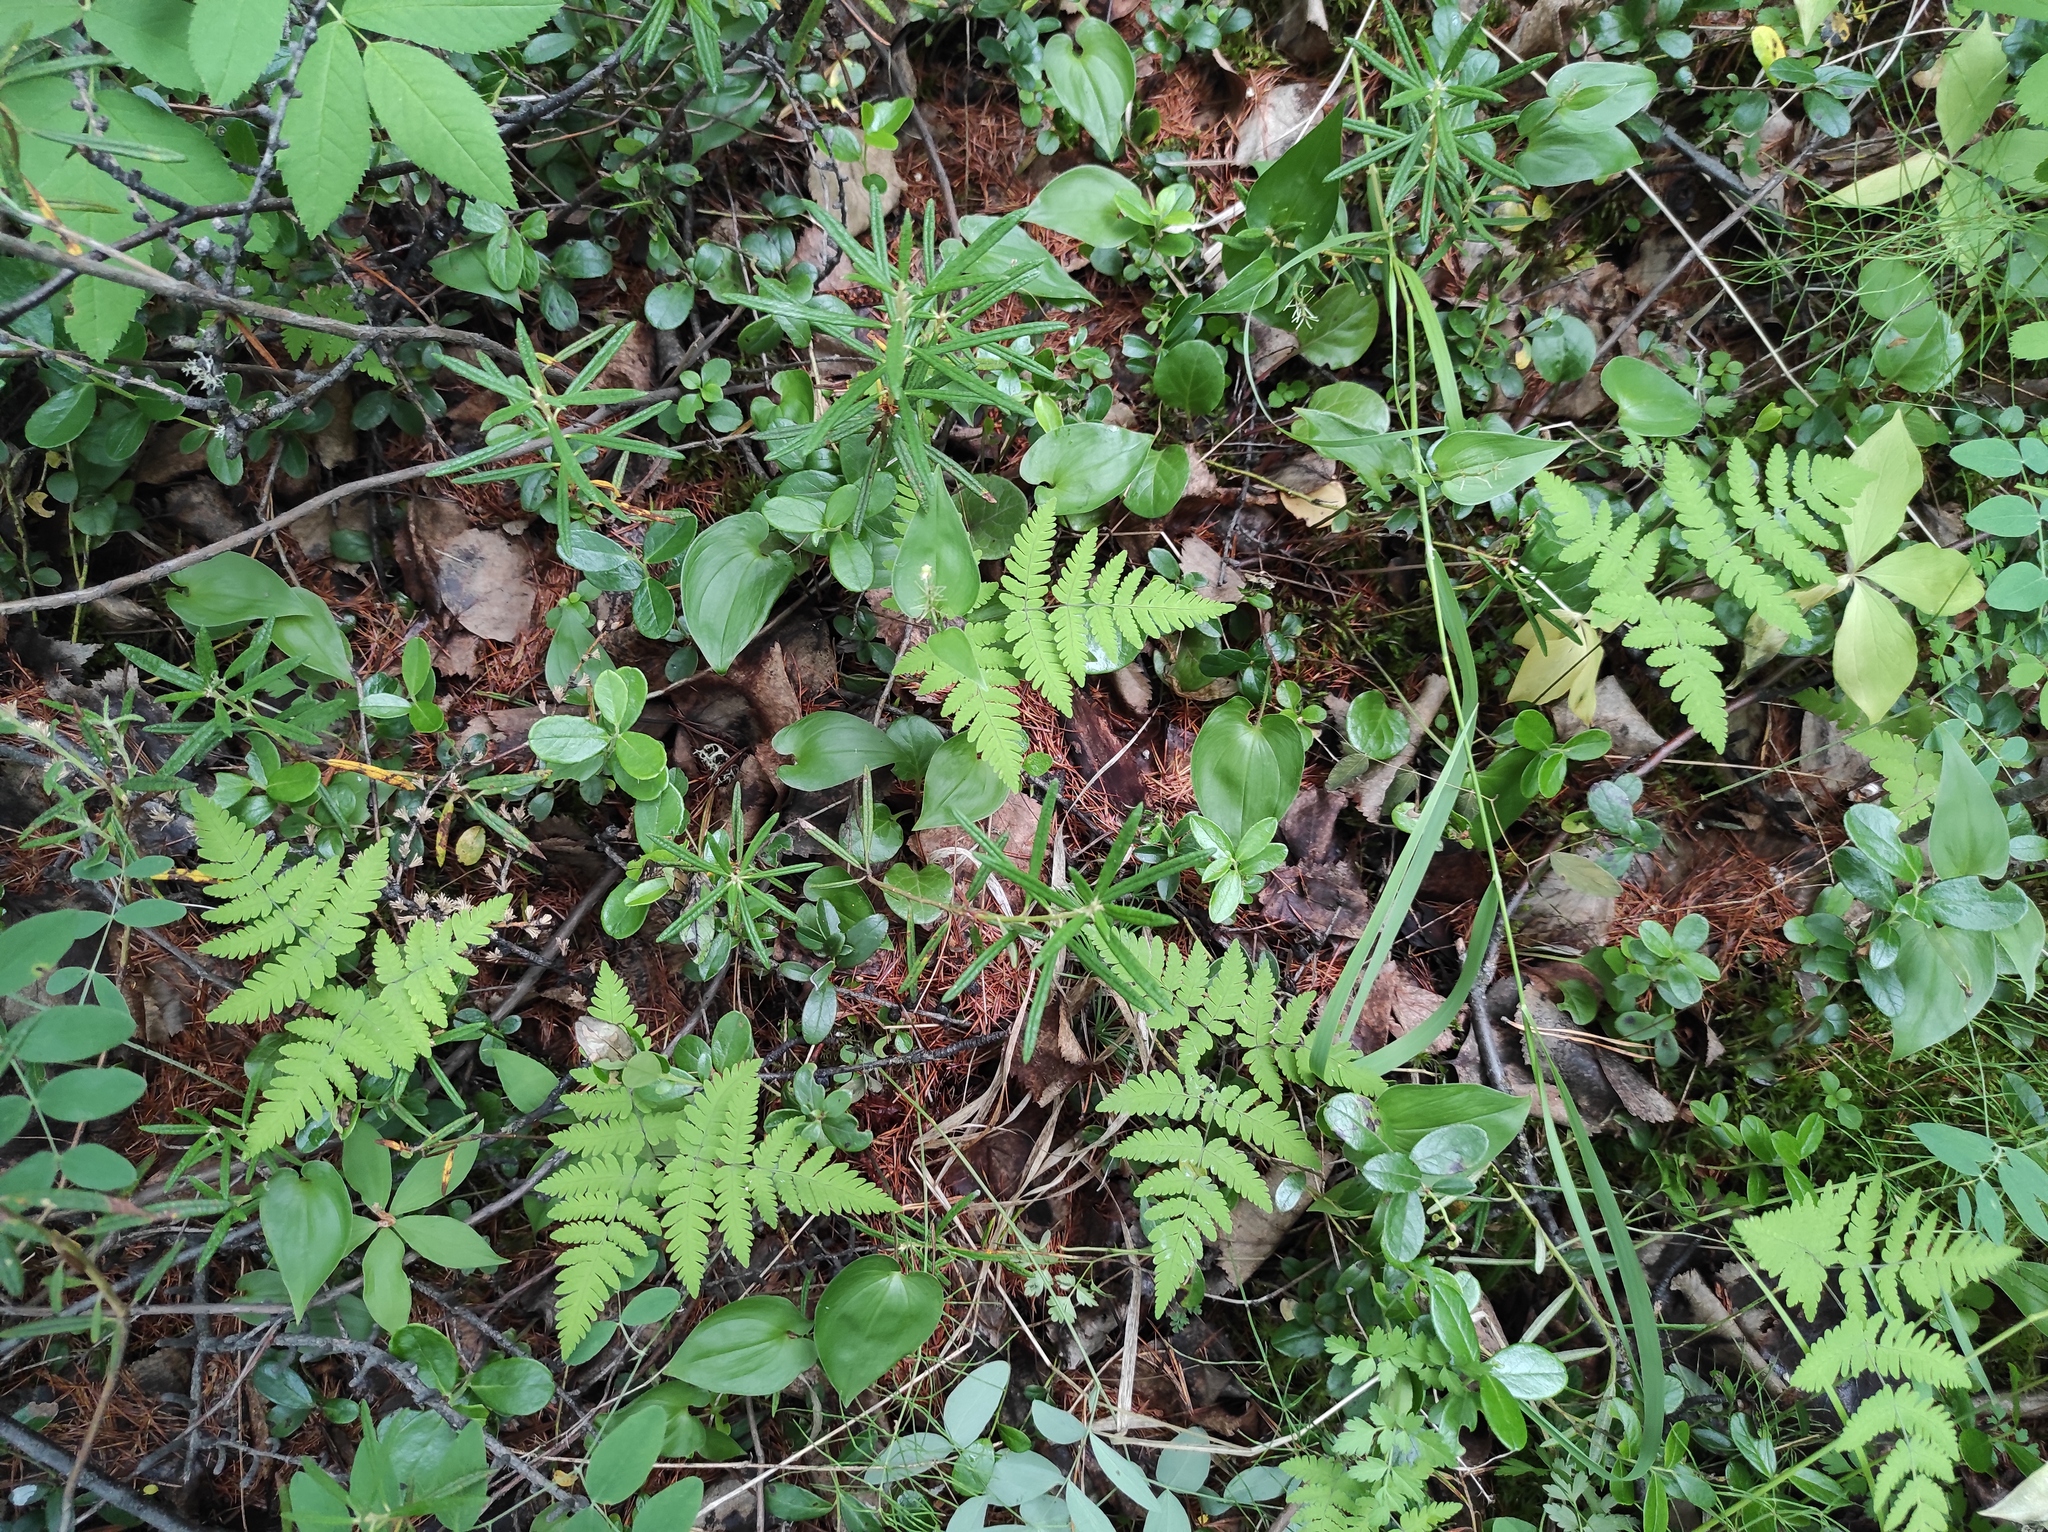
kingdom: Plantae
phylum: Tracheophyta
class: Liliopsida
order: Asparagales
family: Asparagaceae
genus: Maianthemum
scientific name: Maianthemum bifolium
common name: May lily
